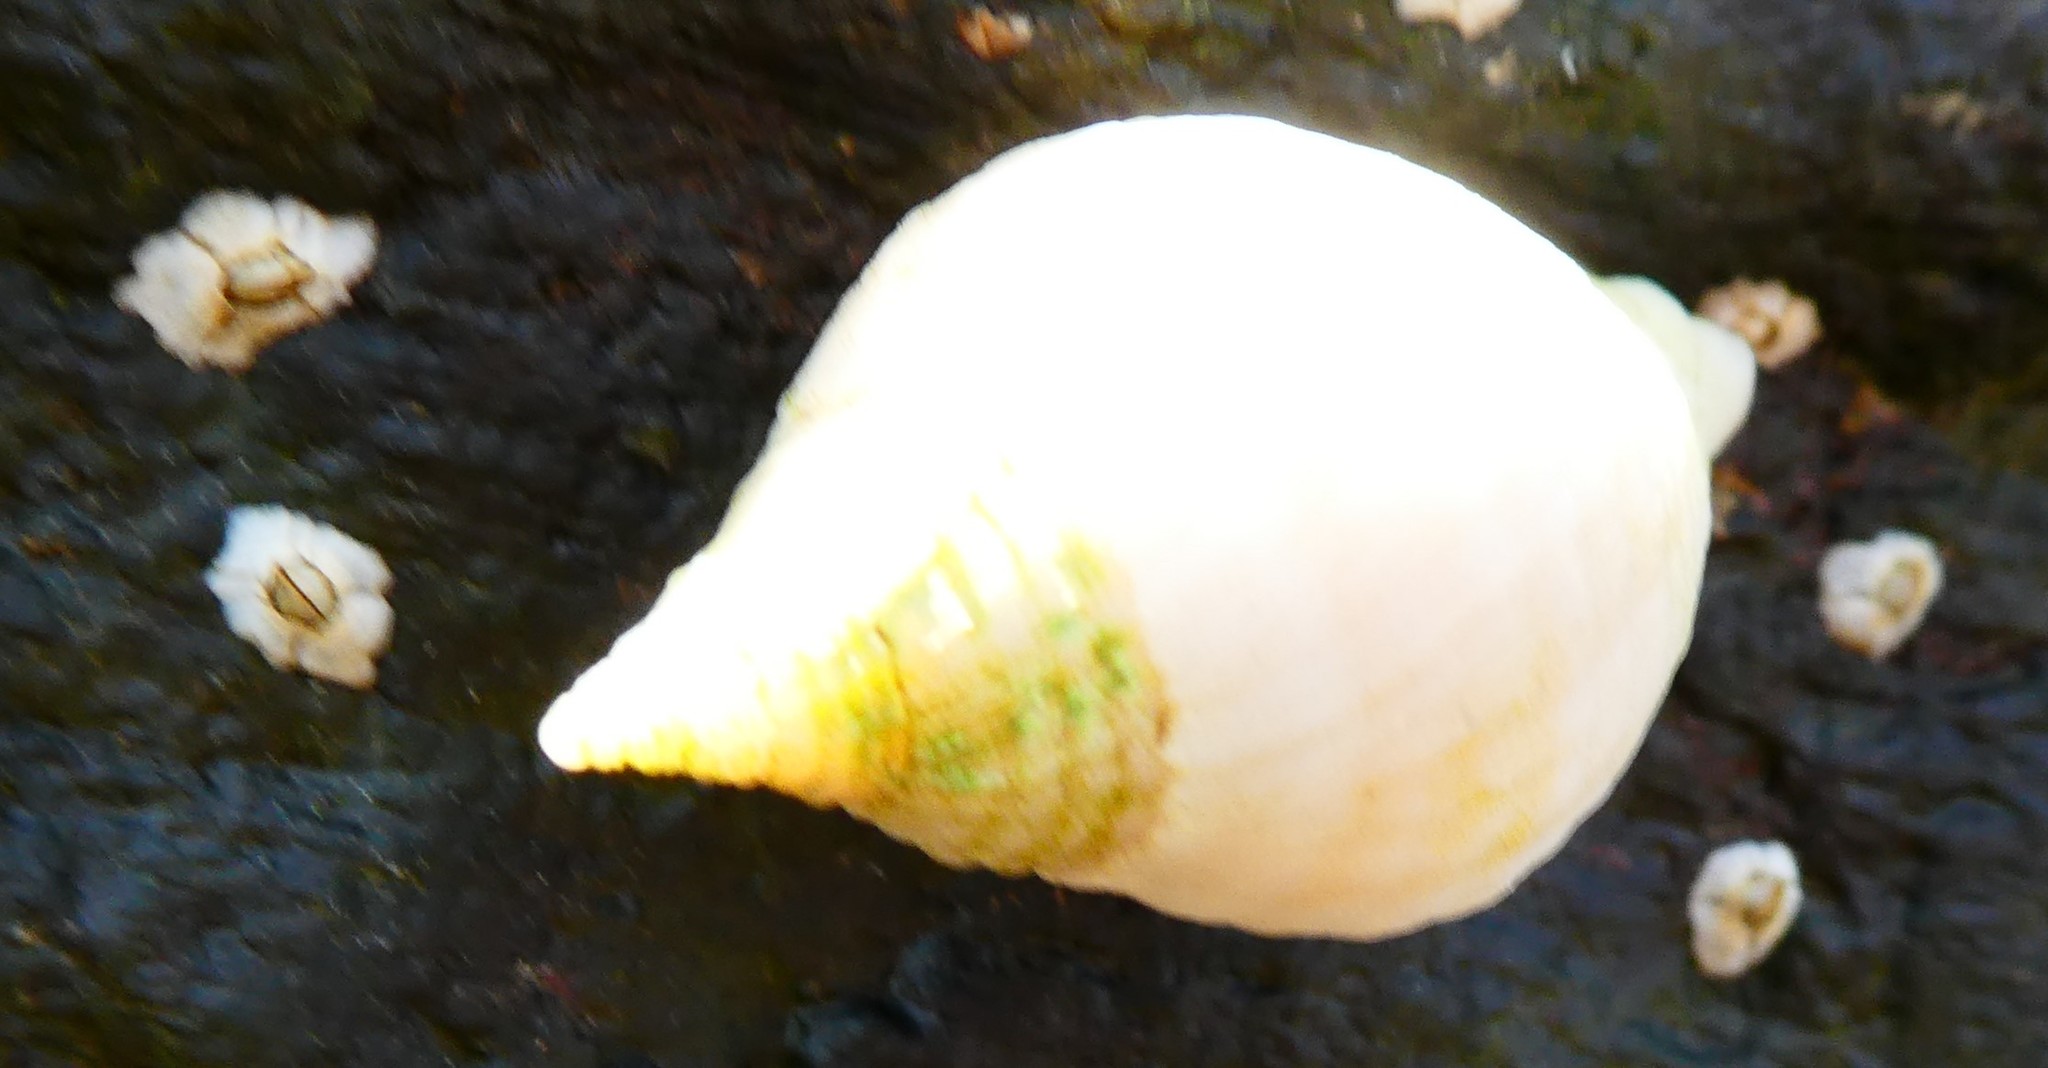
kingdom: Animalia
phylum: Mollusca
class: Gastropoda
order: Neogastropoda
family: Muricidae
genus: Nucella
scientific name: Nucella lapillus
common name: Dog whelk
